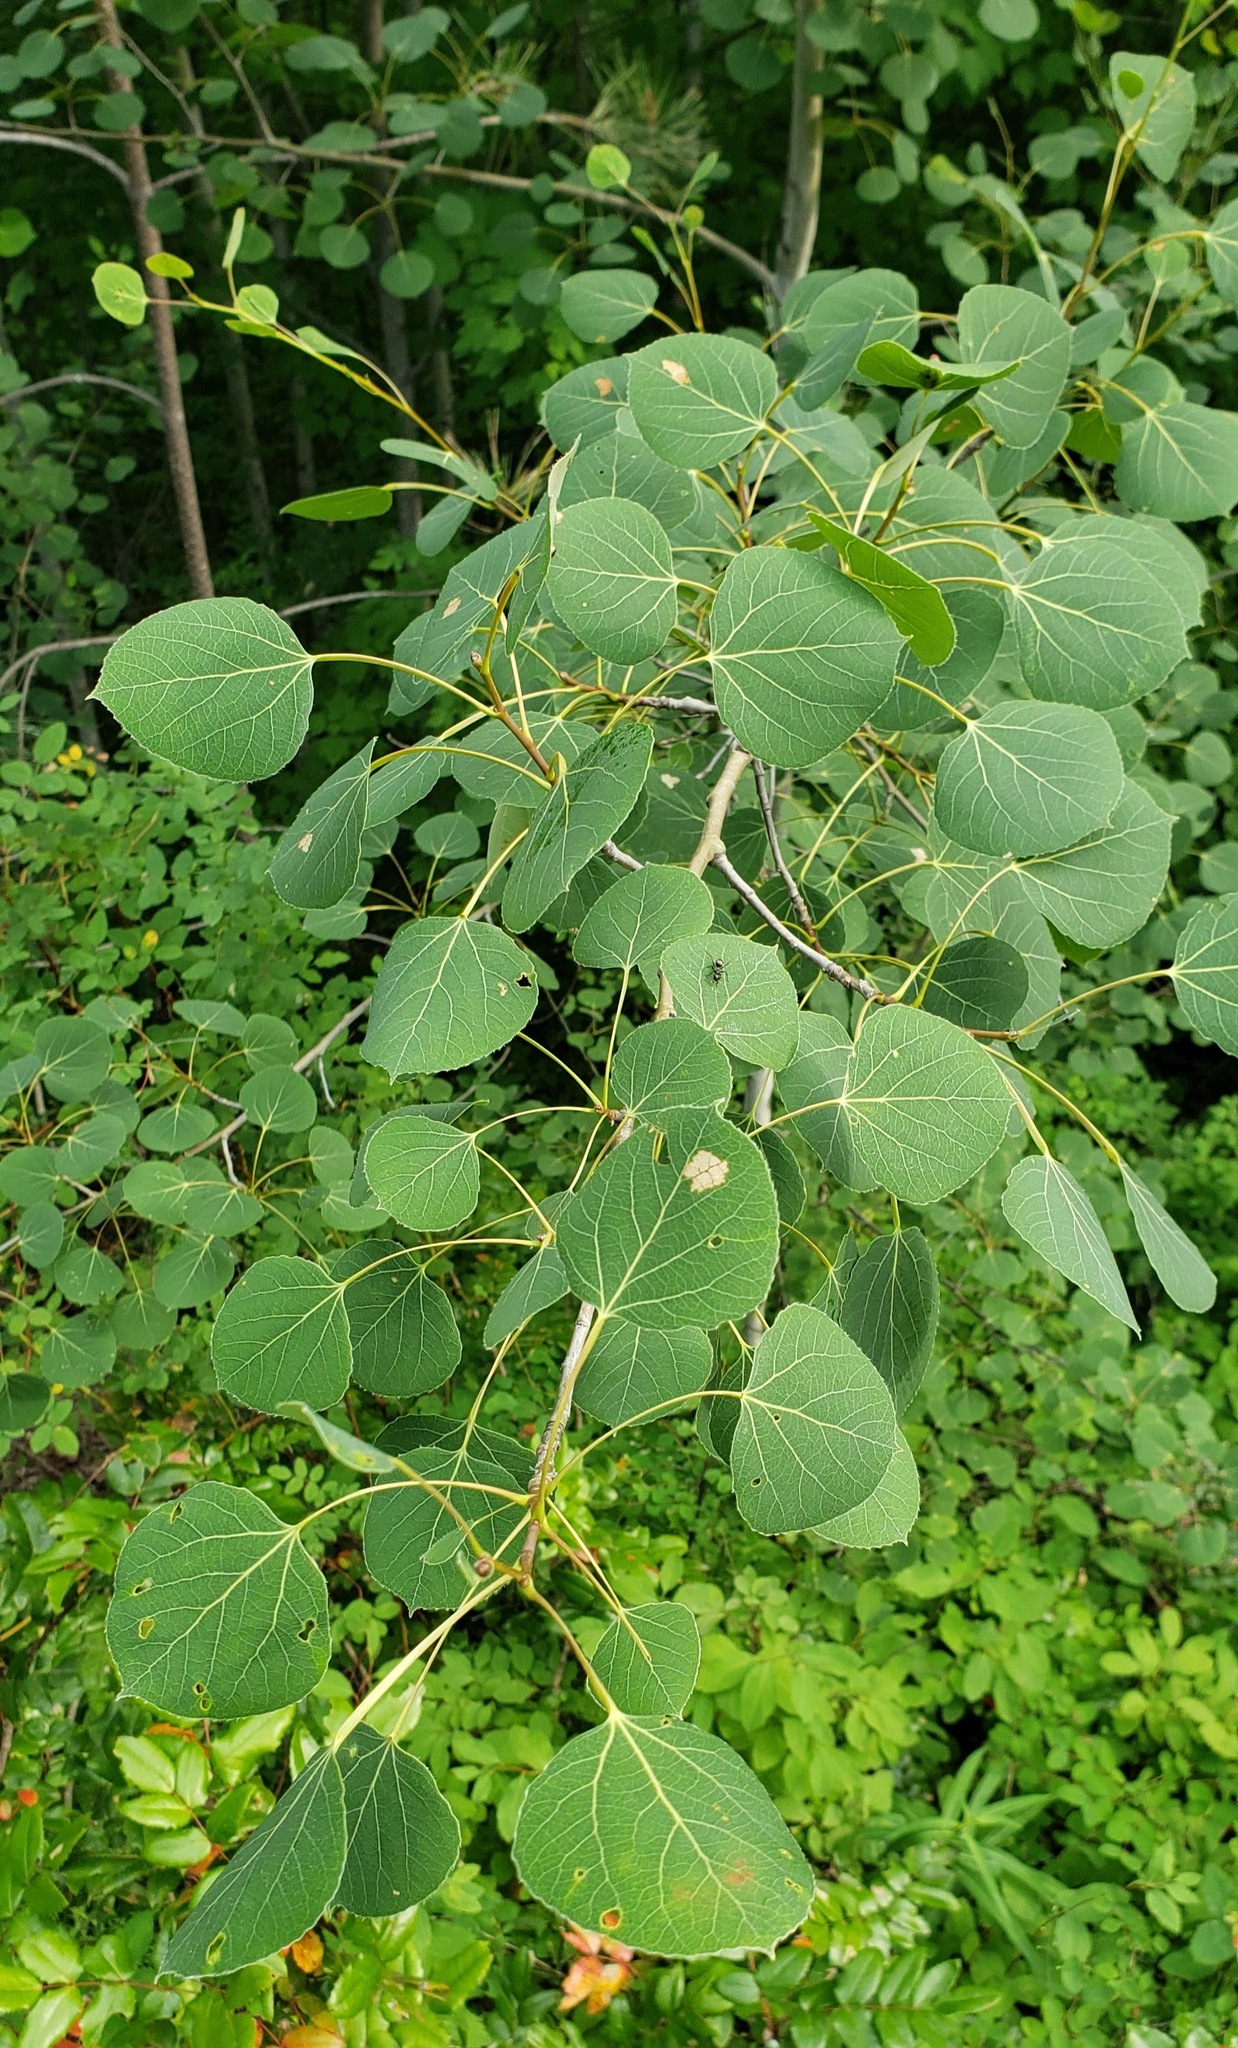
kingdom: Plantae
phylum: Tracheophyta
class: Magnoliopsida
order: Malpighiales
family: Salicaceae
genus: Populus
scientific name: Populus tremuloides
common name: Quaking aspen
